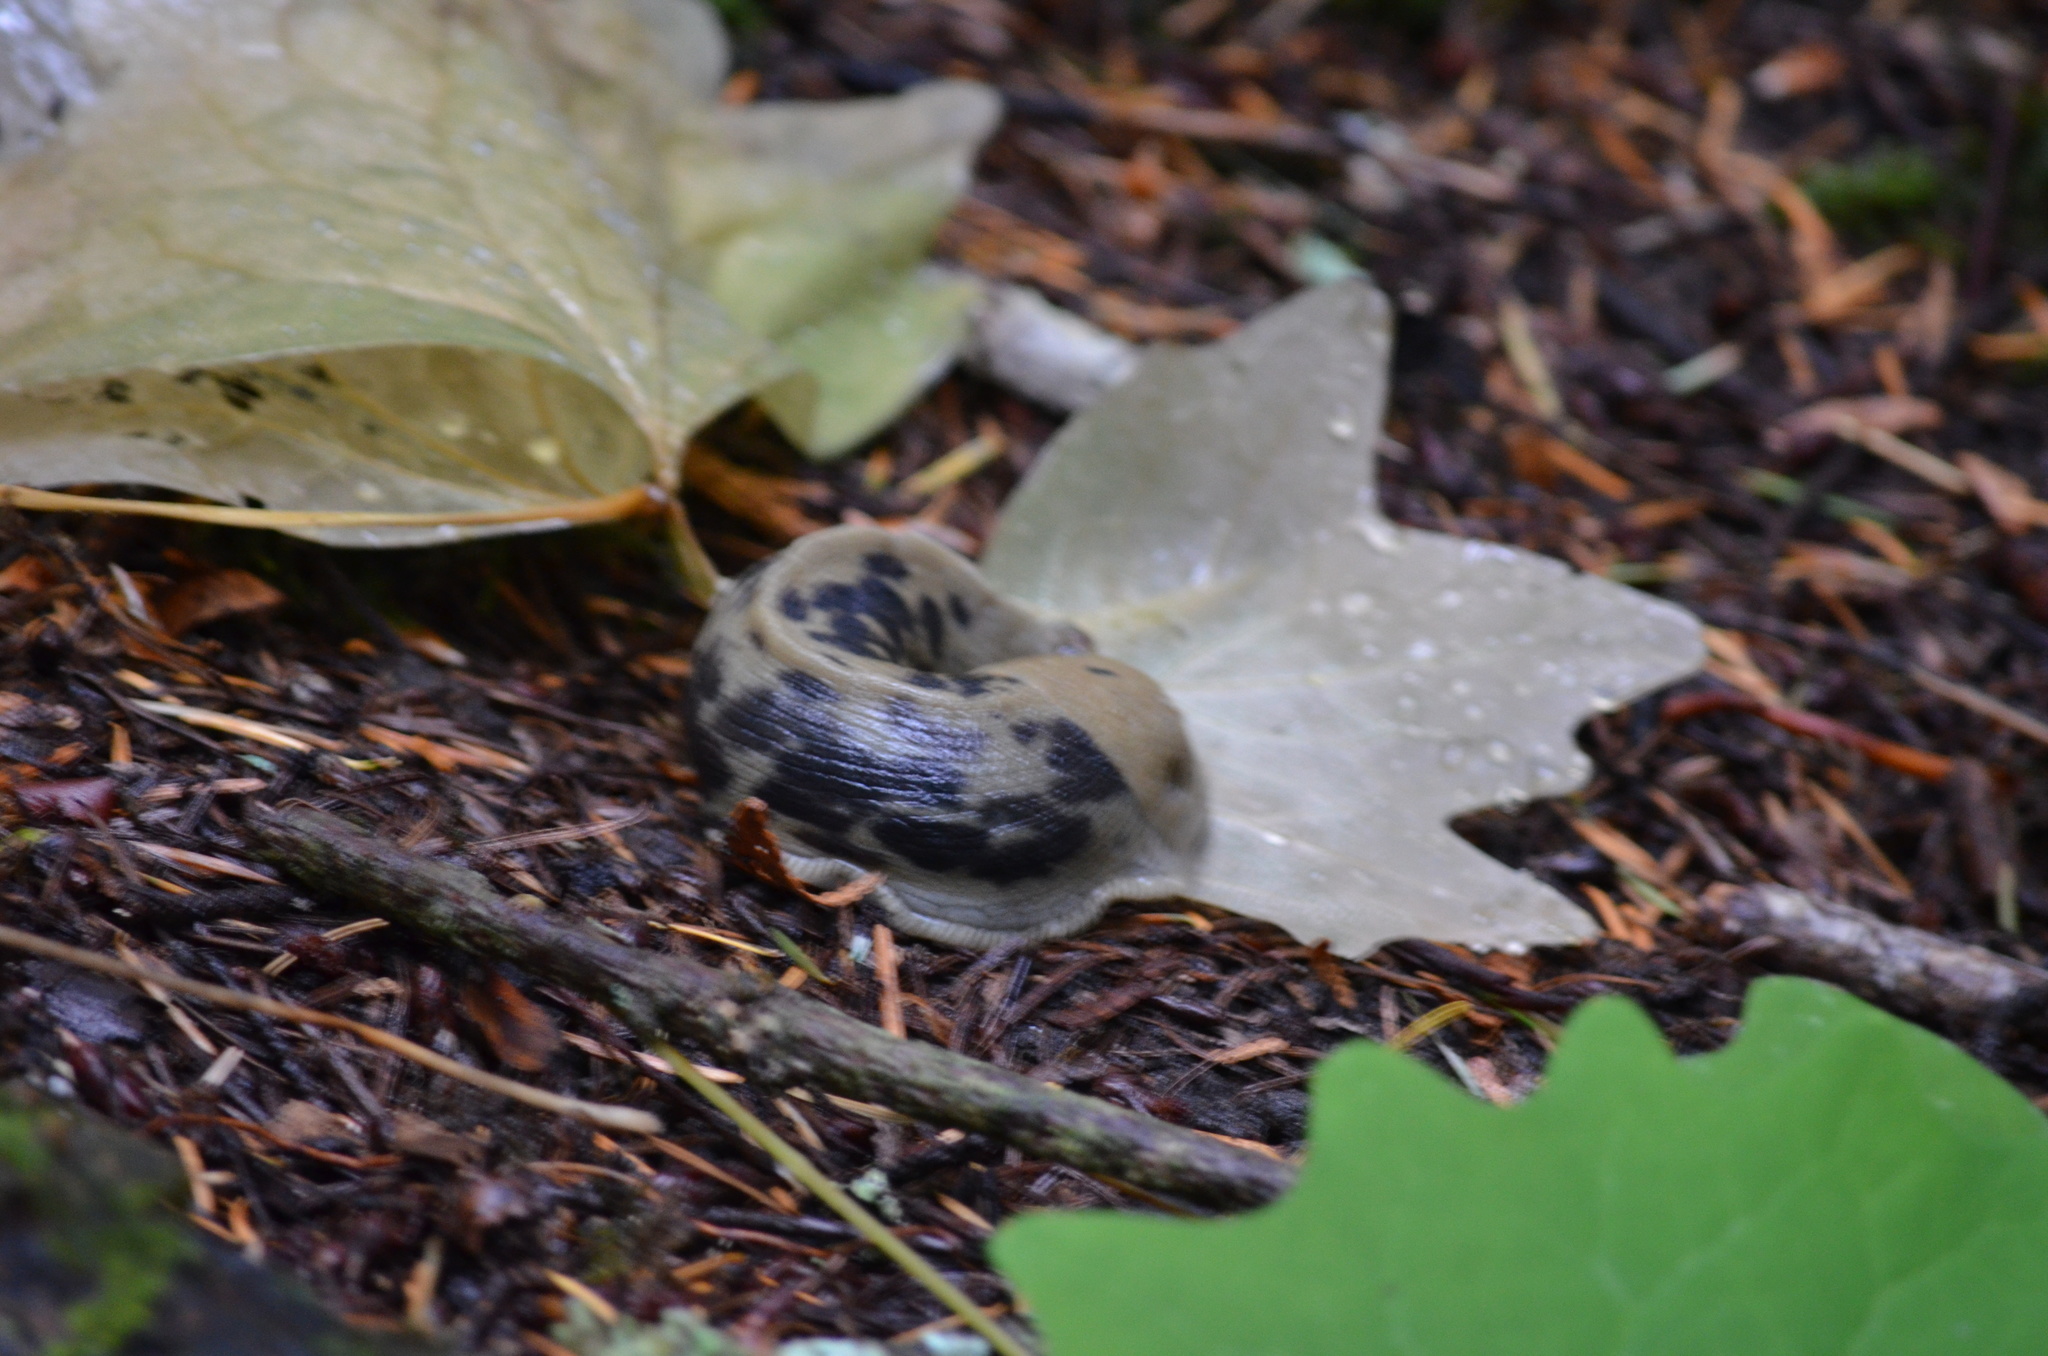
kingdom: Animalia
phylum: Mollusca
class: Gastropoda
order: Stylommatophora
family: Ariolimacidae
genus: Ariolimax
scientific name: Ariolimax columbianus
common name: Pacific banana slug
